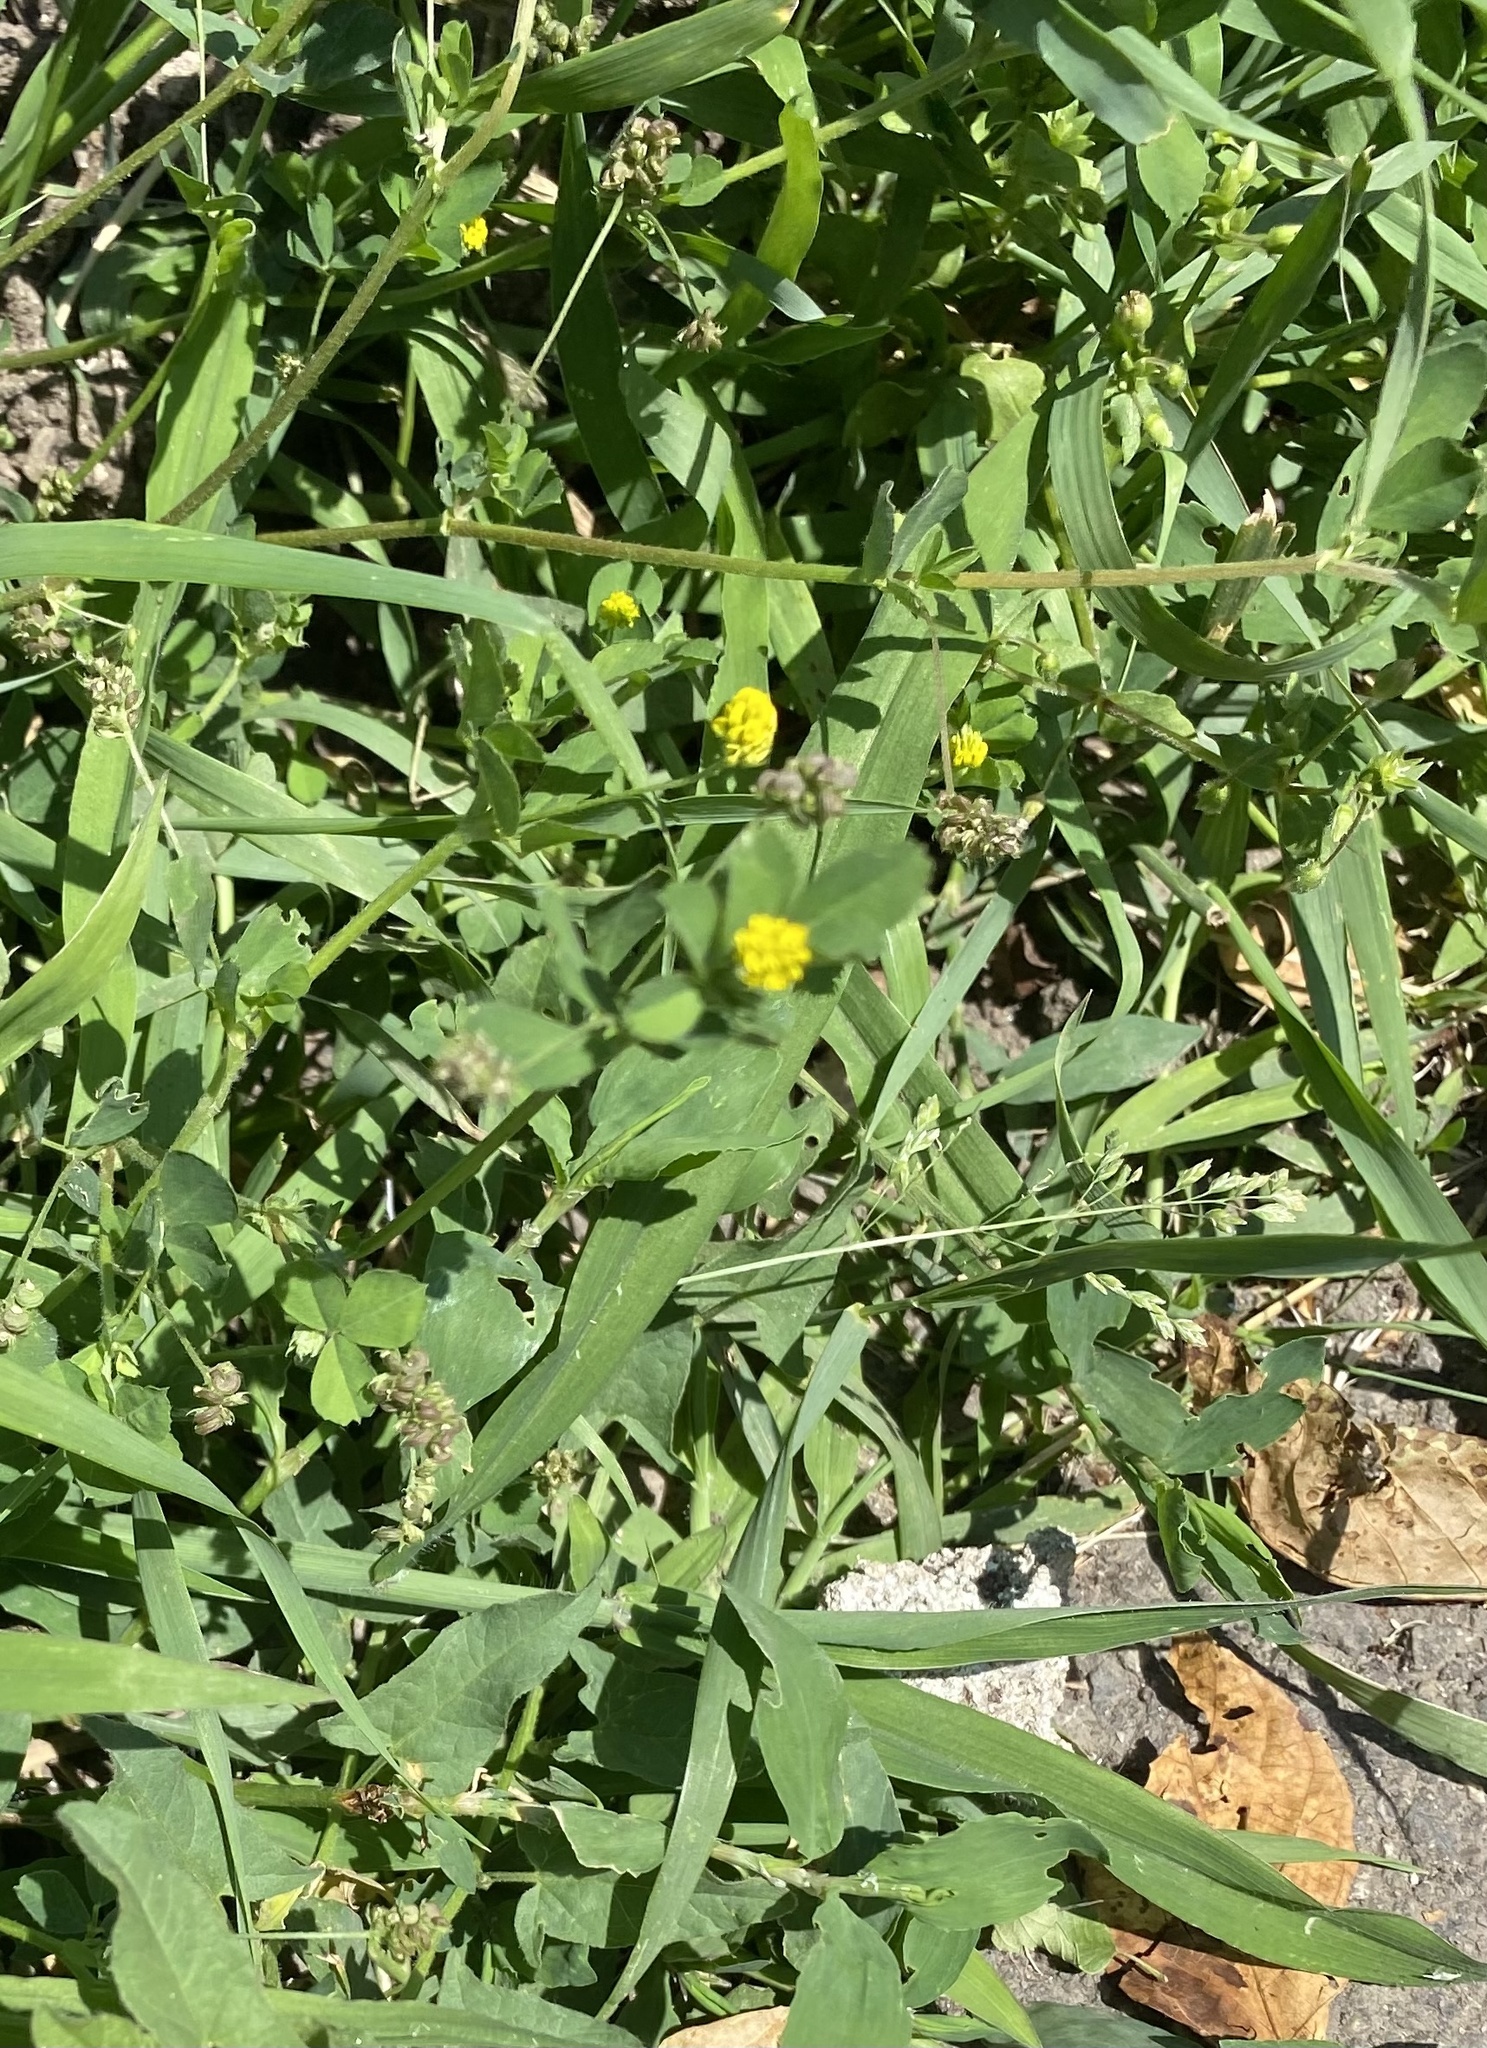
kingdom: Plantae
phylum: Tracheophyta
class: Magnoliopsida
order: Fabales
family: Fabaceae
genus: Medicago
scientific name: Medicago lupulina
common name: Black medick
